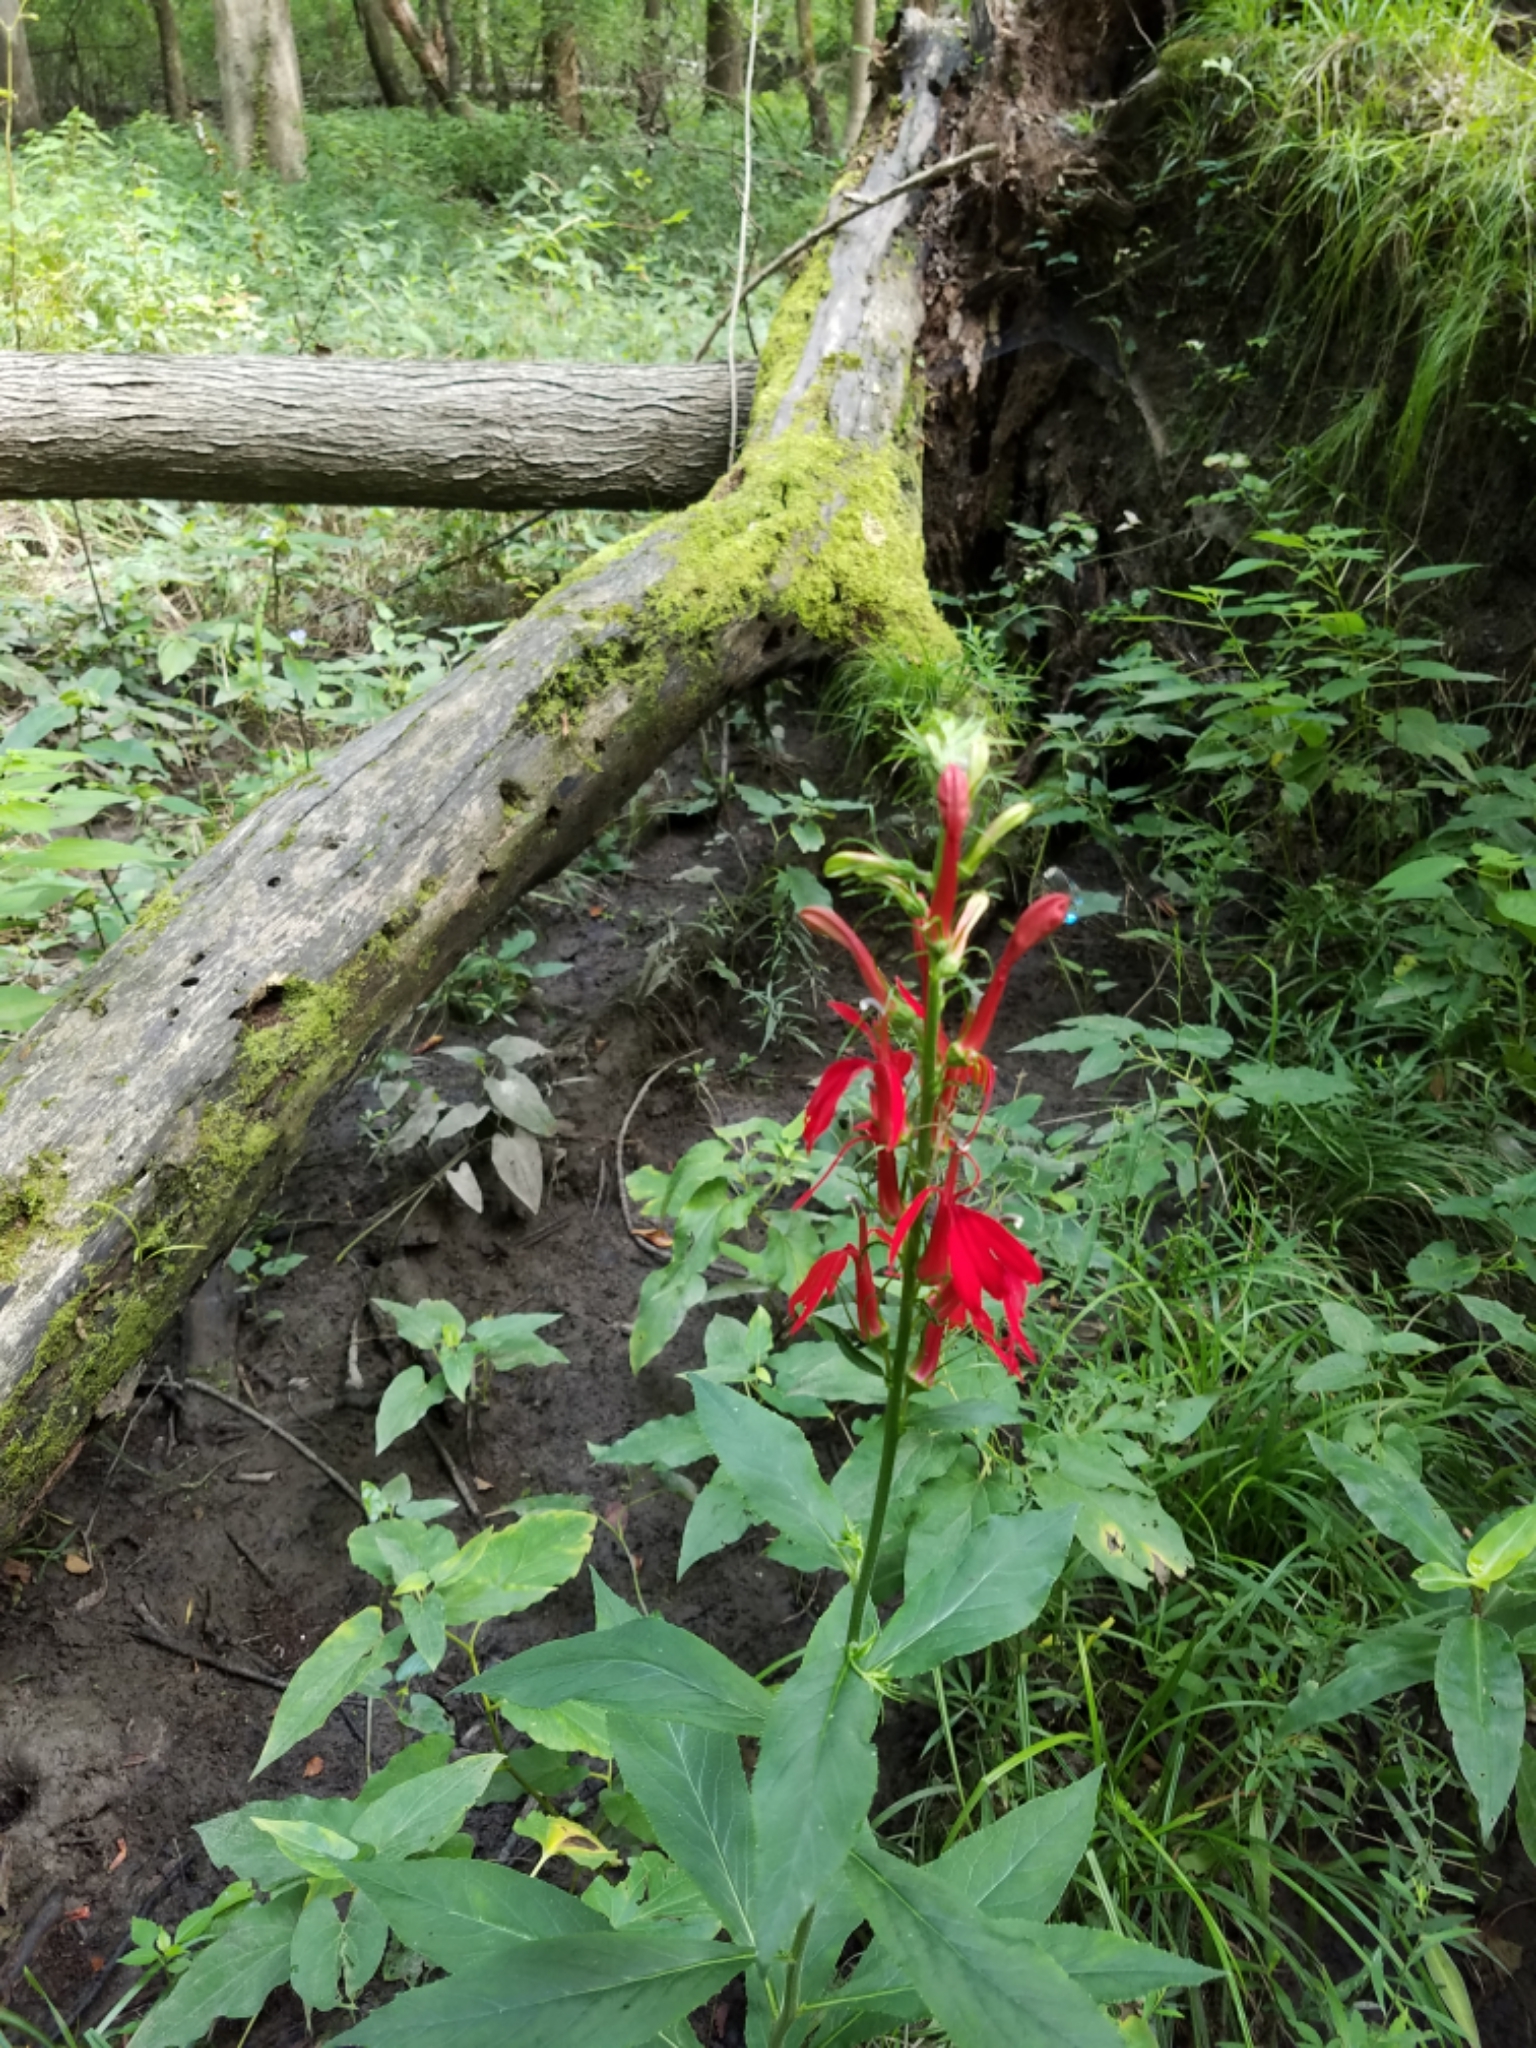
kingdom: Plantae
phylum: Tracheophyta
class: Magnoliopsida
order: Asterales
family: Campanulaceae
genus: Lobelia
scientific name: Lobelia cardinalis
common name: Cardinal flower
